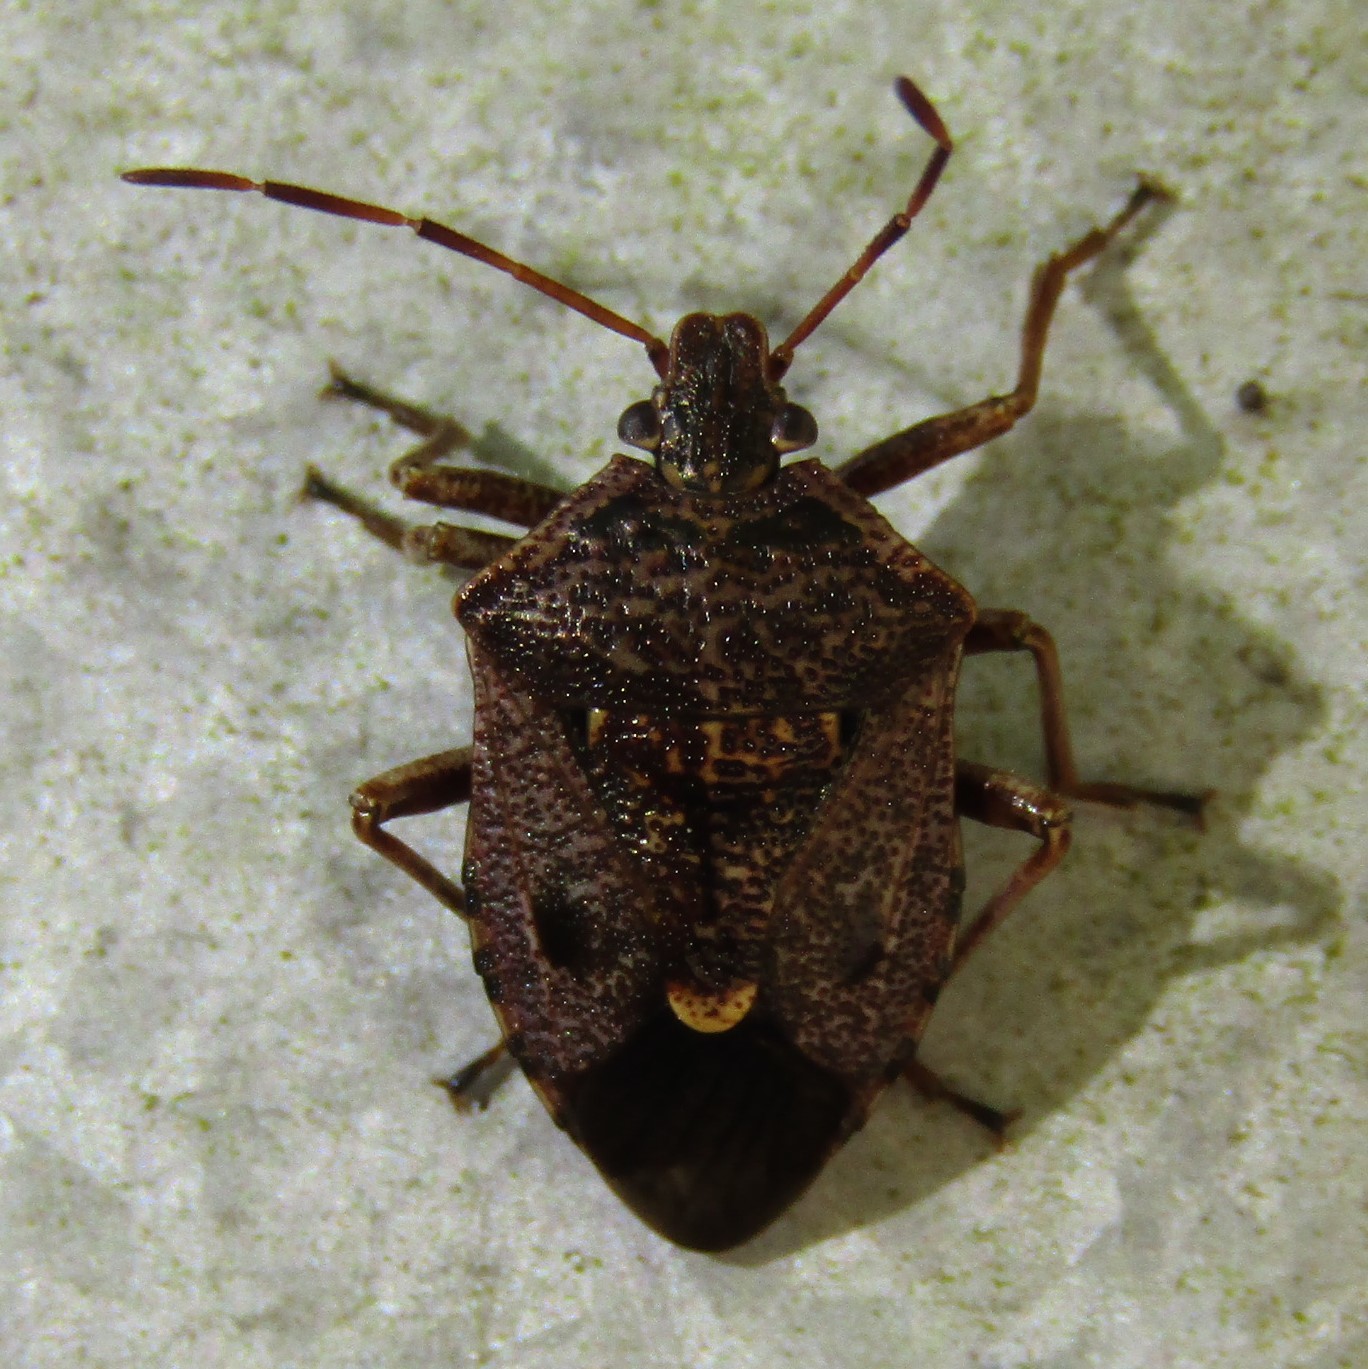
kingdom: Animalia
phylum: Arthropoda
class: Insecta
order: Hemiptera
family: Pentatomidae
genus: Cermatulus
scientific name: Cermatulus nasalis
